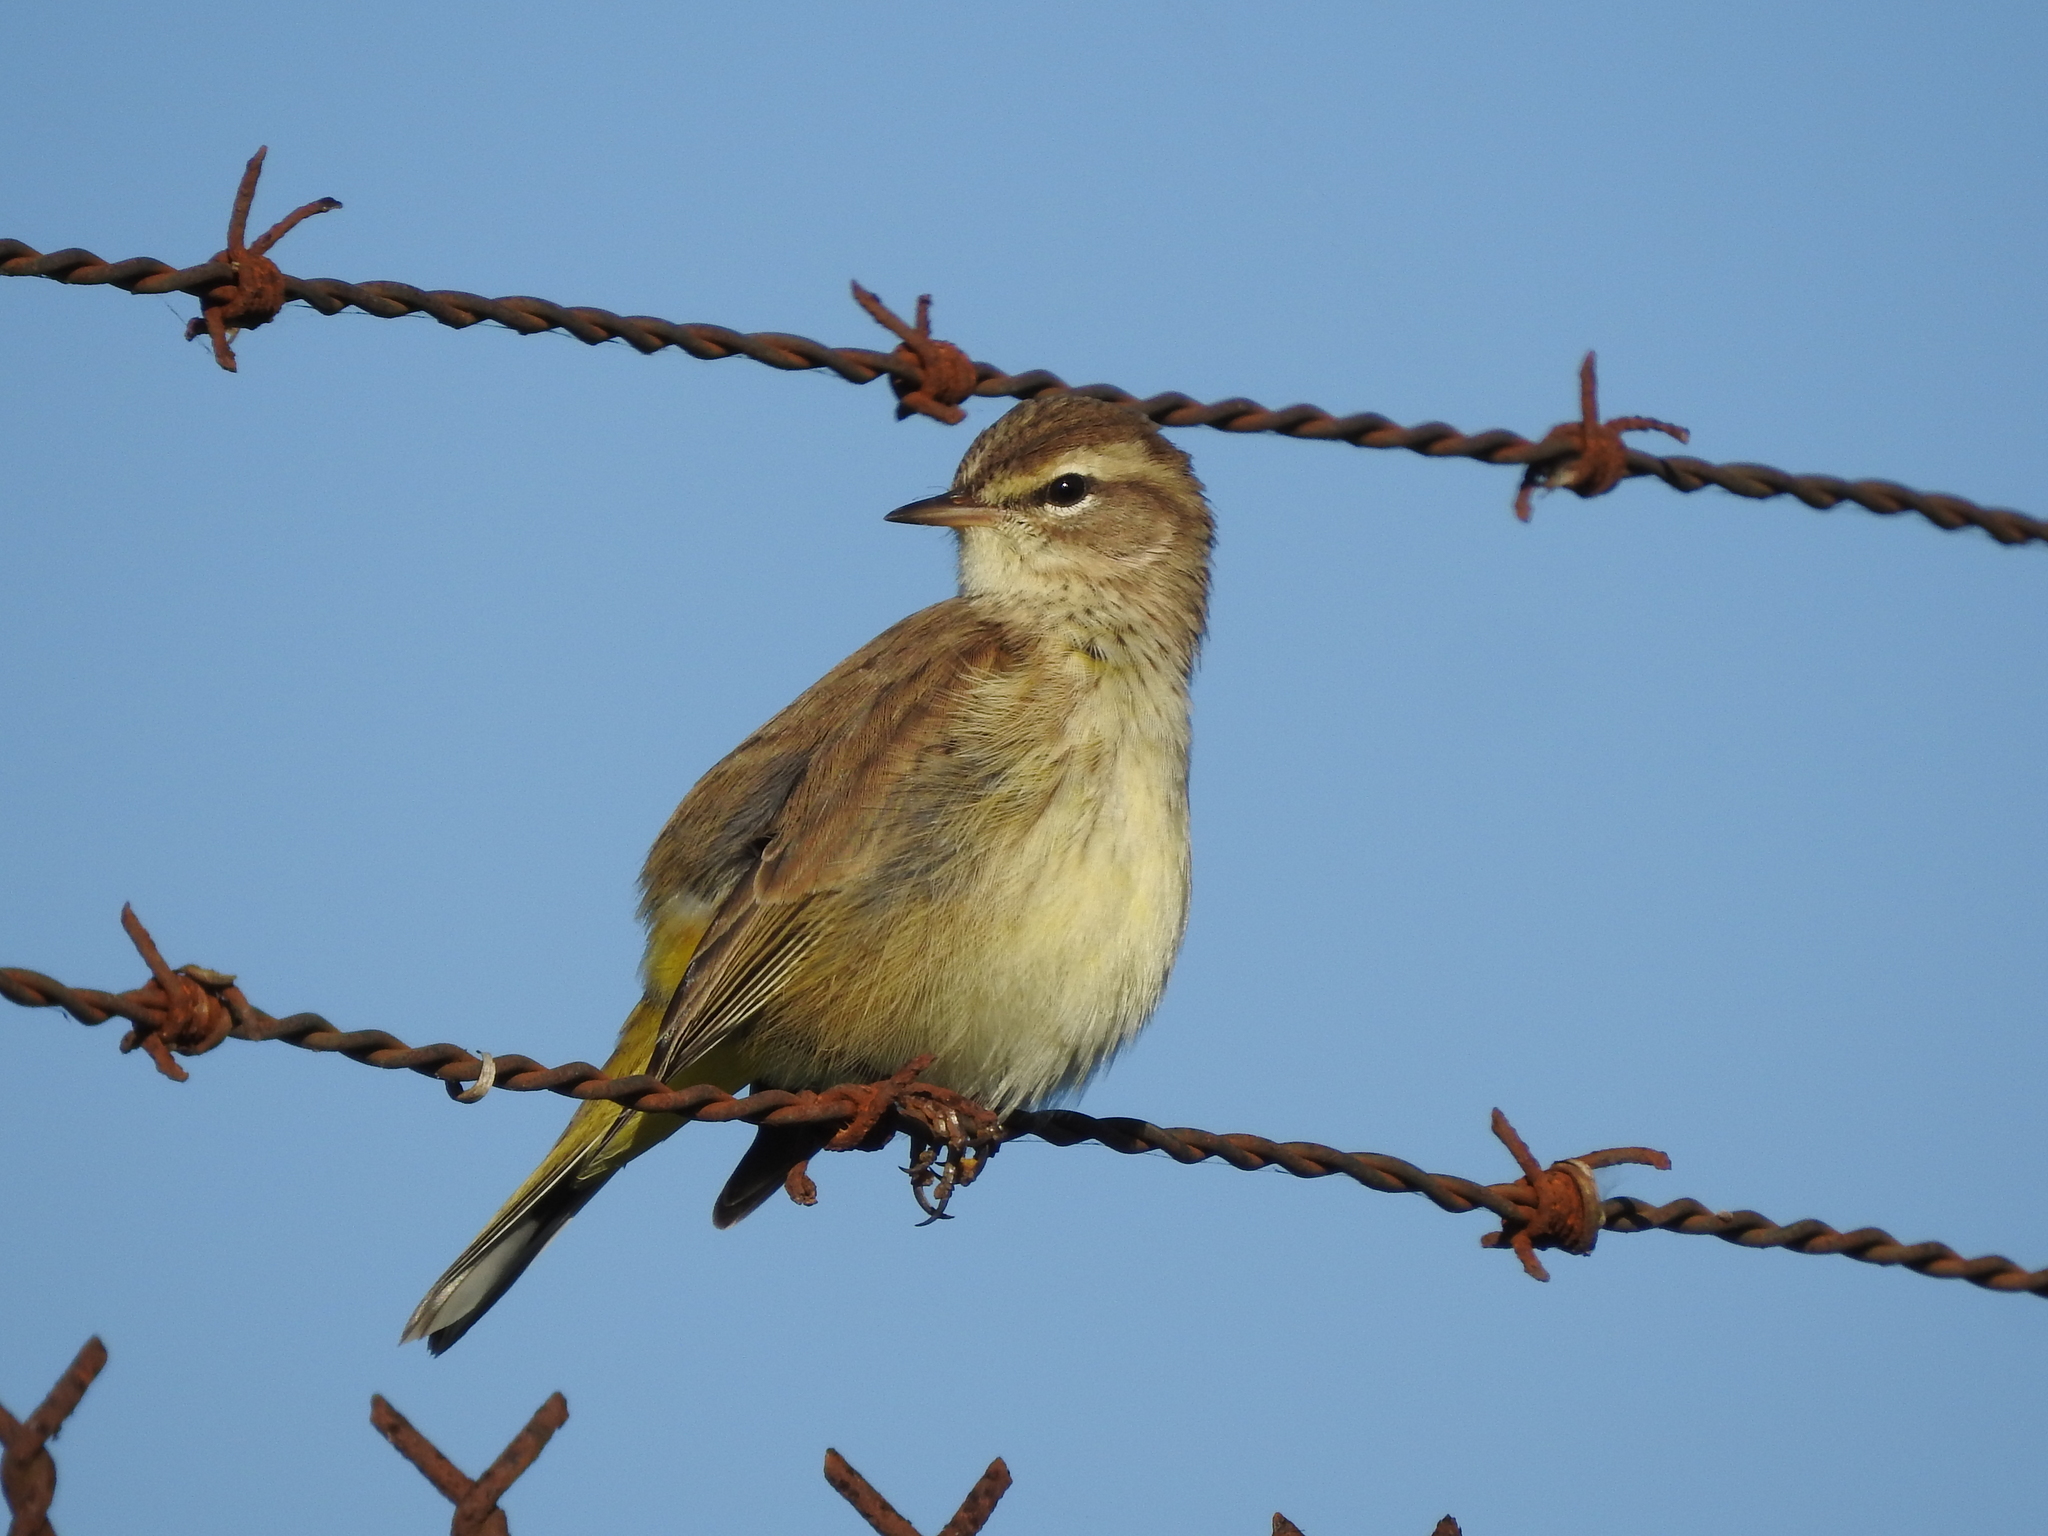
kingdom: Animalia
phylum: Chordata
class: Aves
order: Passeriformes
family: Parulidae
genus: Setophaga
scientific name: Setophaga palmarum
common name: Palm warbler
